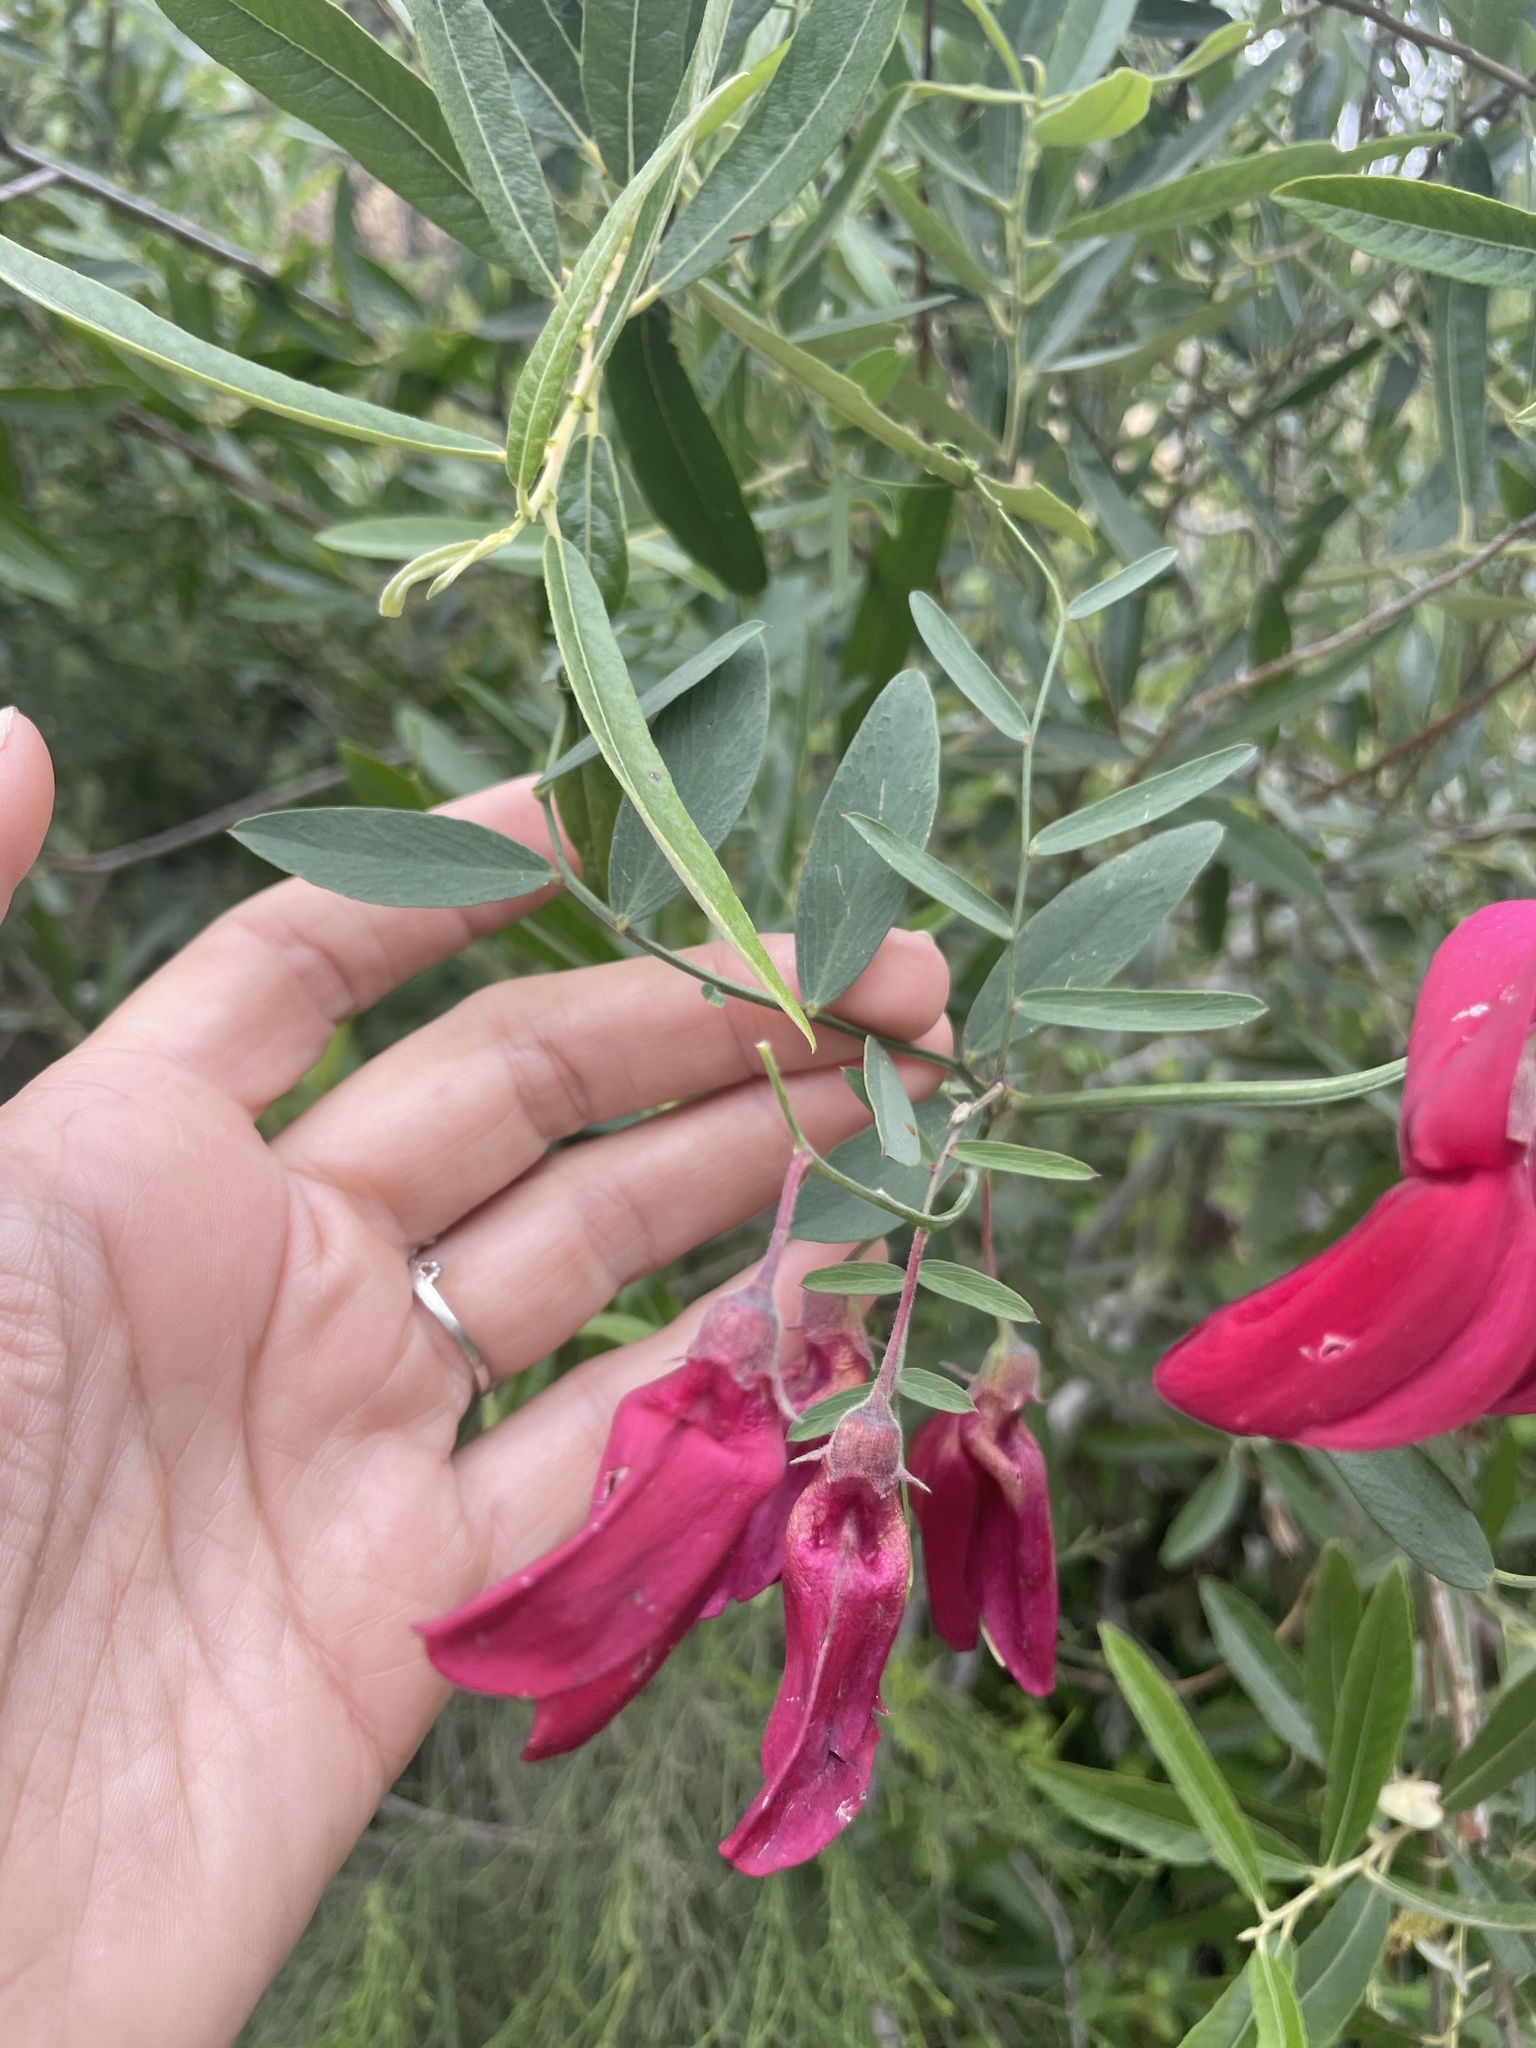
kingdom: Plantae
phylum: Tracheophyta
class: Magnoliopsida
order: Fabales
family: Fabaceae
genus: Lathyrus
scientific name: Lathyrus splendens
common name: Campo-pea
